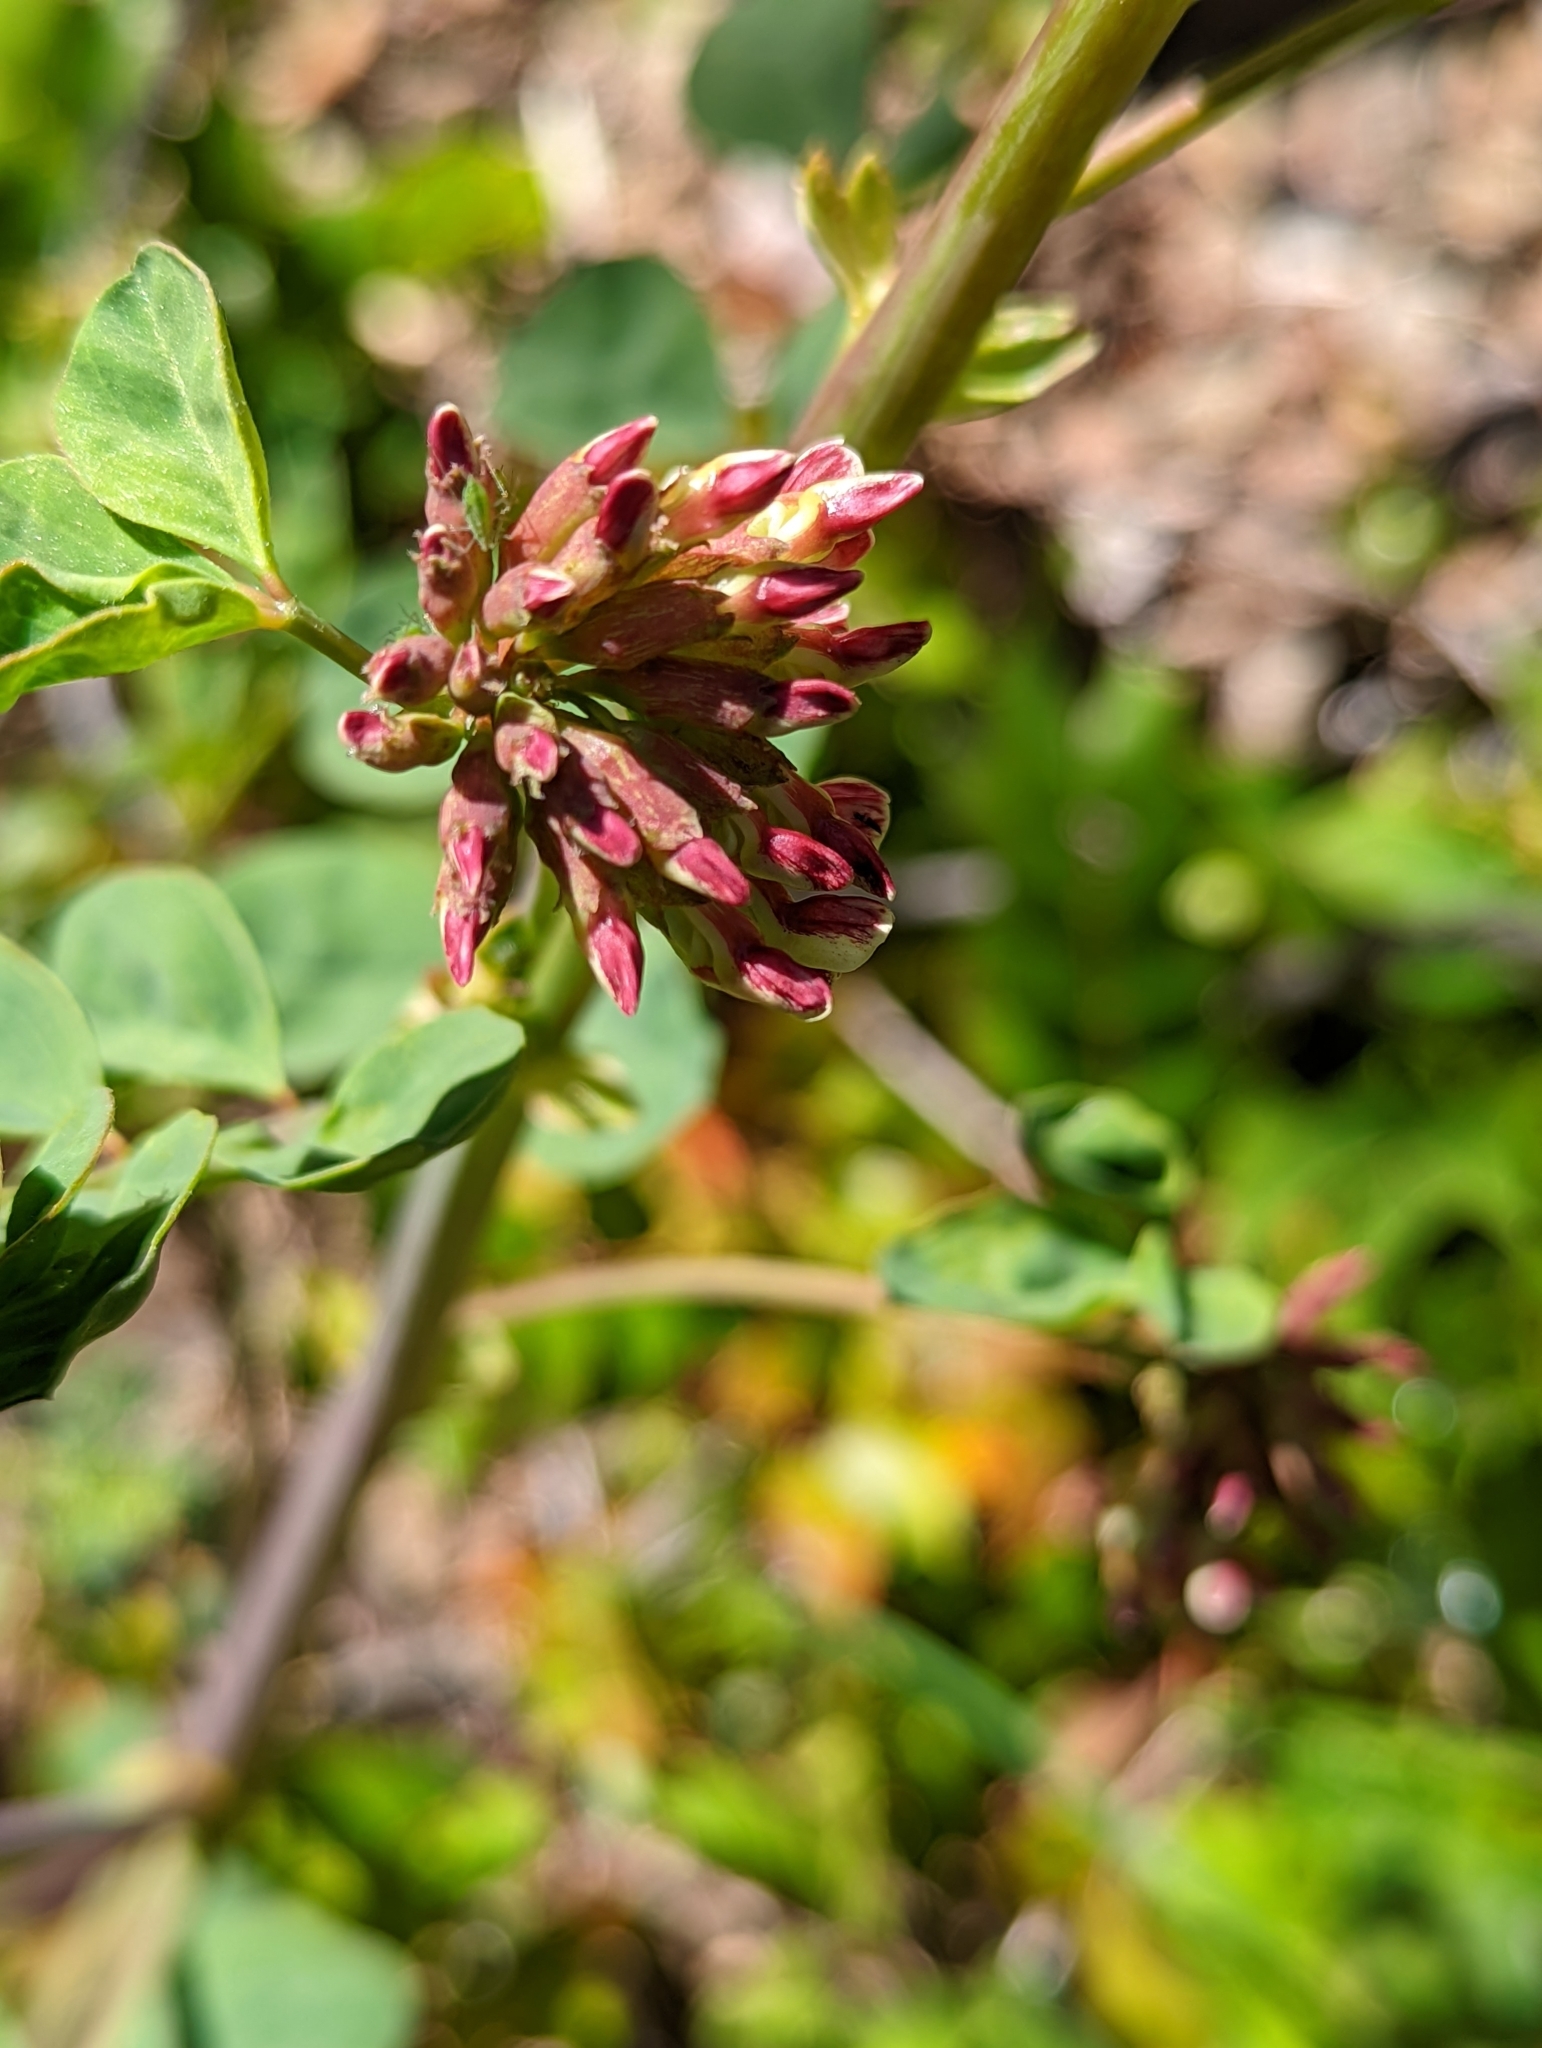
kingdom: Plantae
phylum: Tracheophyta
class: Magnoliopsida
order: Fabales
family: Fabaceae
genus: Hosackia
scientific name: Hosackia crassifolia
